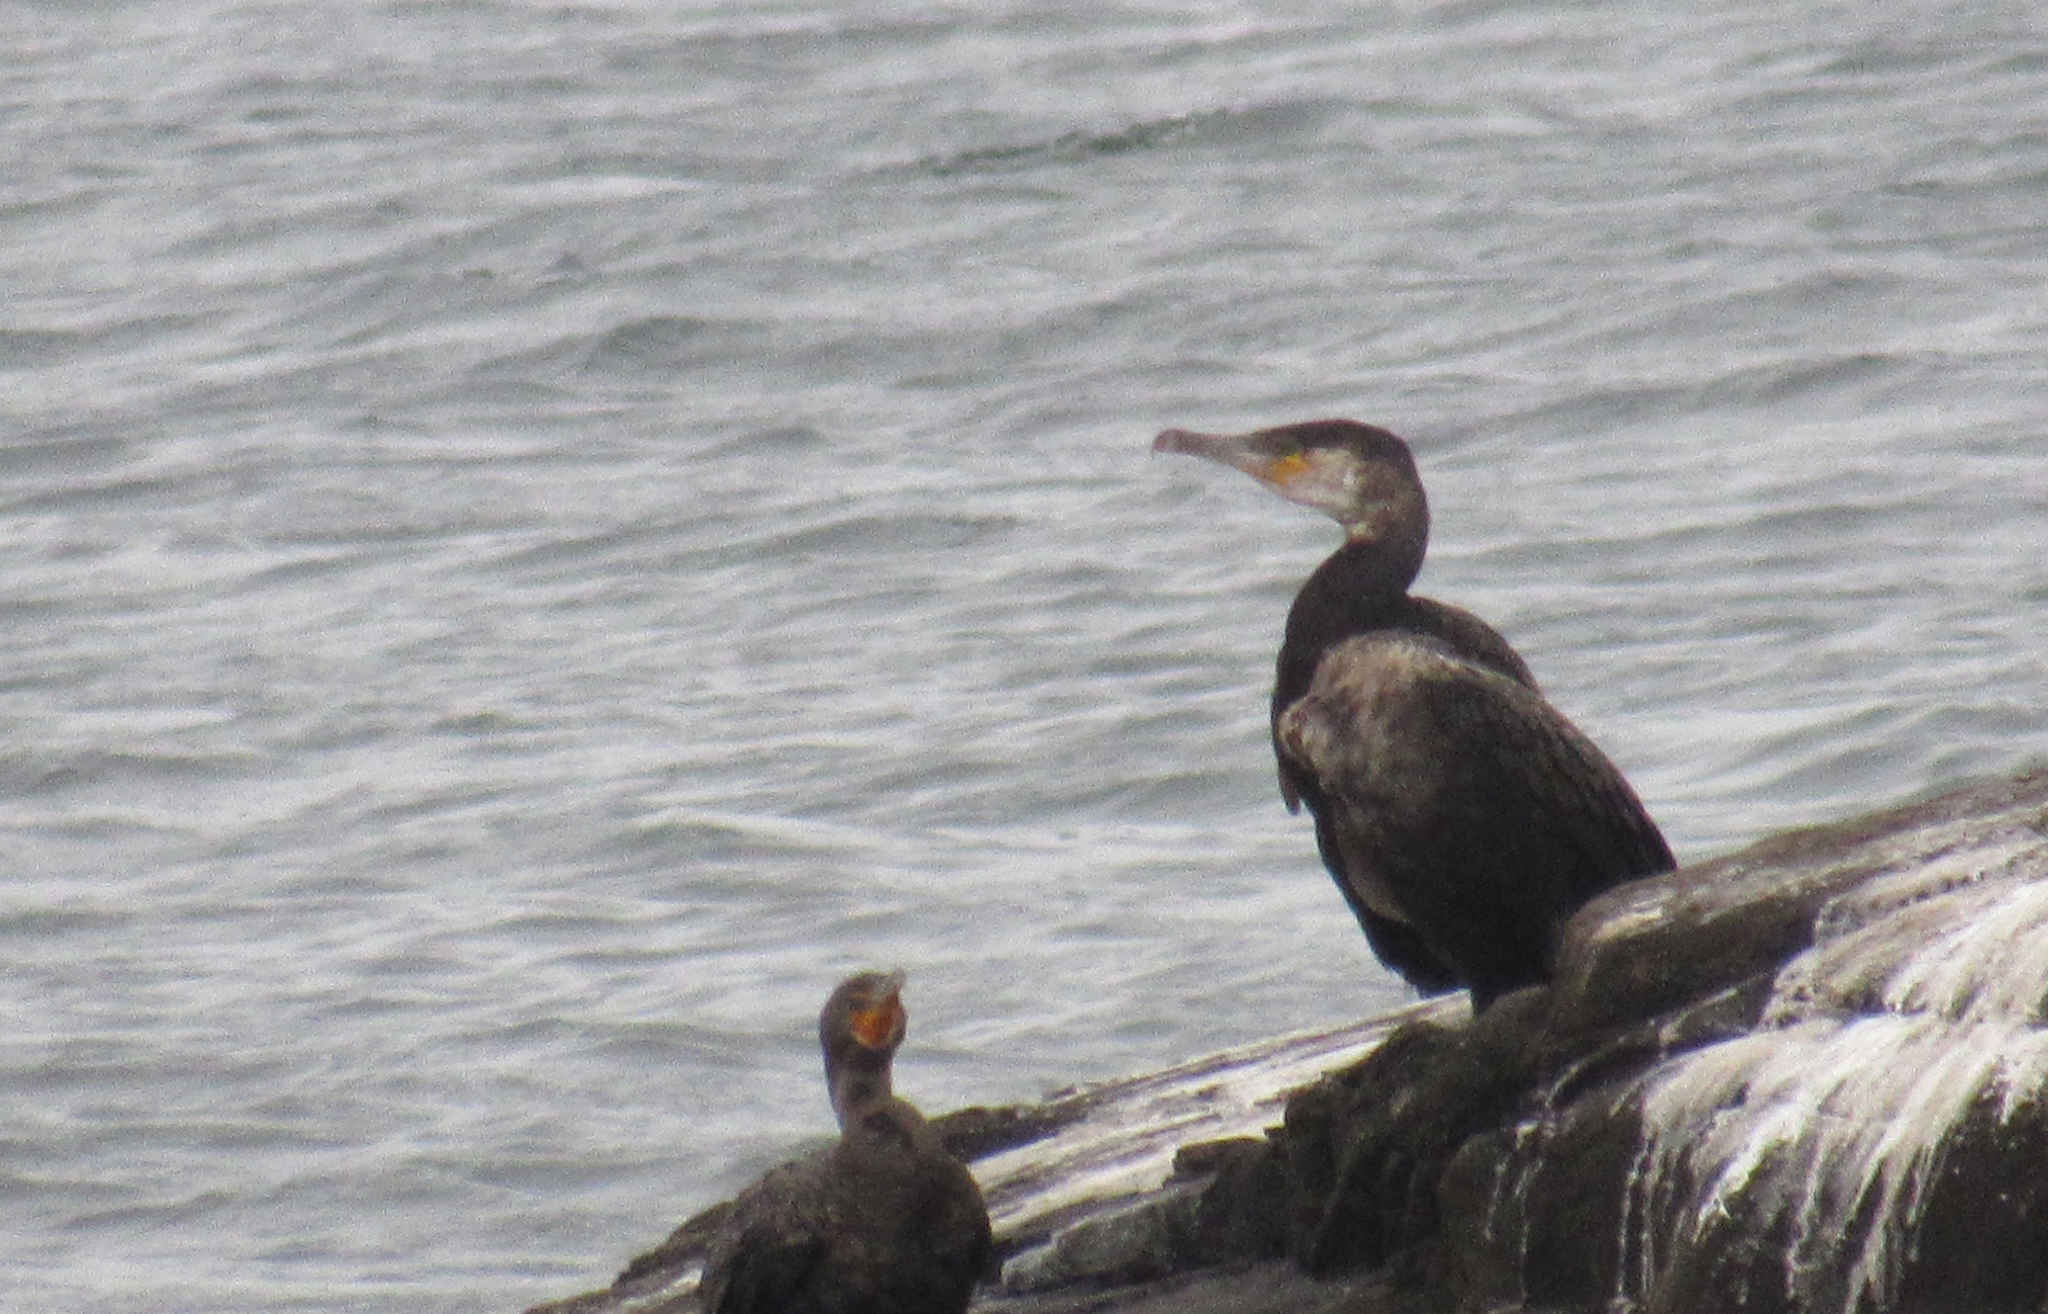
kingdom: Animalia
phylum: Chordata
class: Aves
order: Suliformes
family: Phalacrocoracidae
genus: Phalacrocorax
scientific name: Phalacrocorax carbo
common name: Great cormorant
